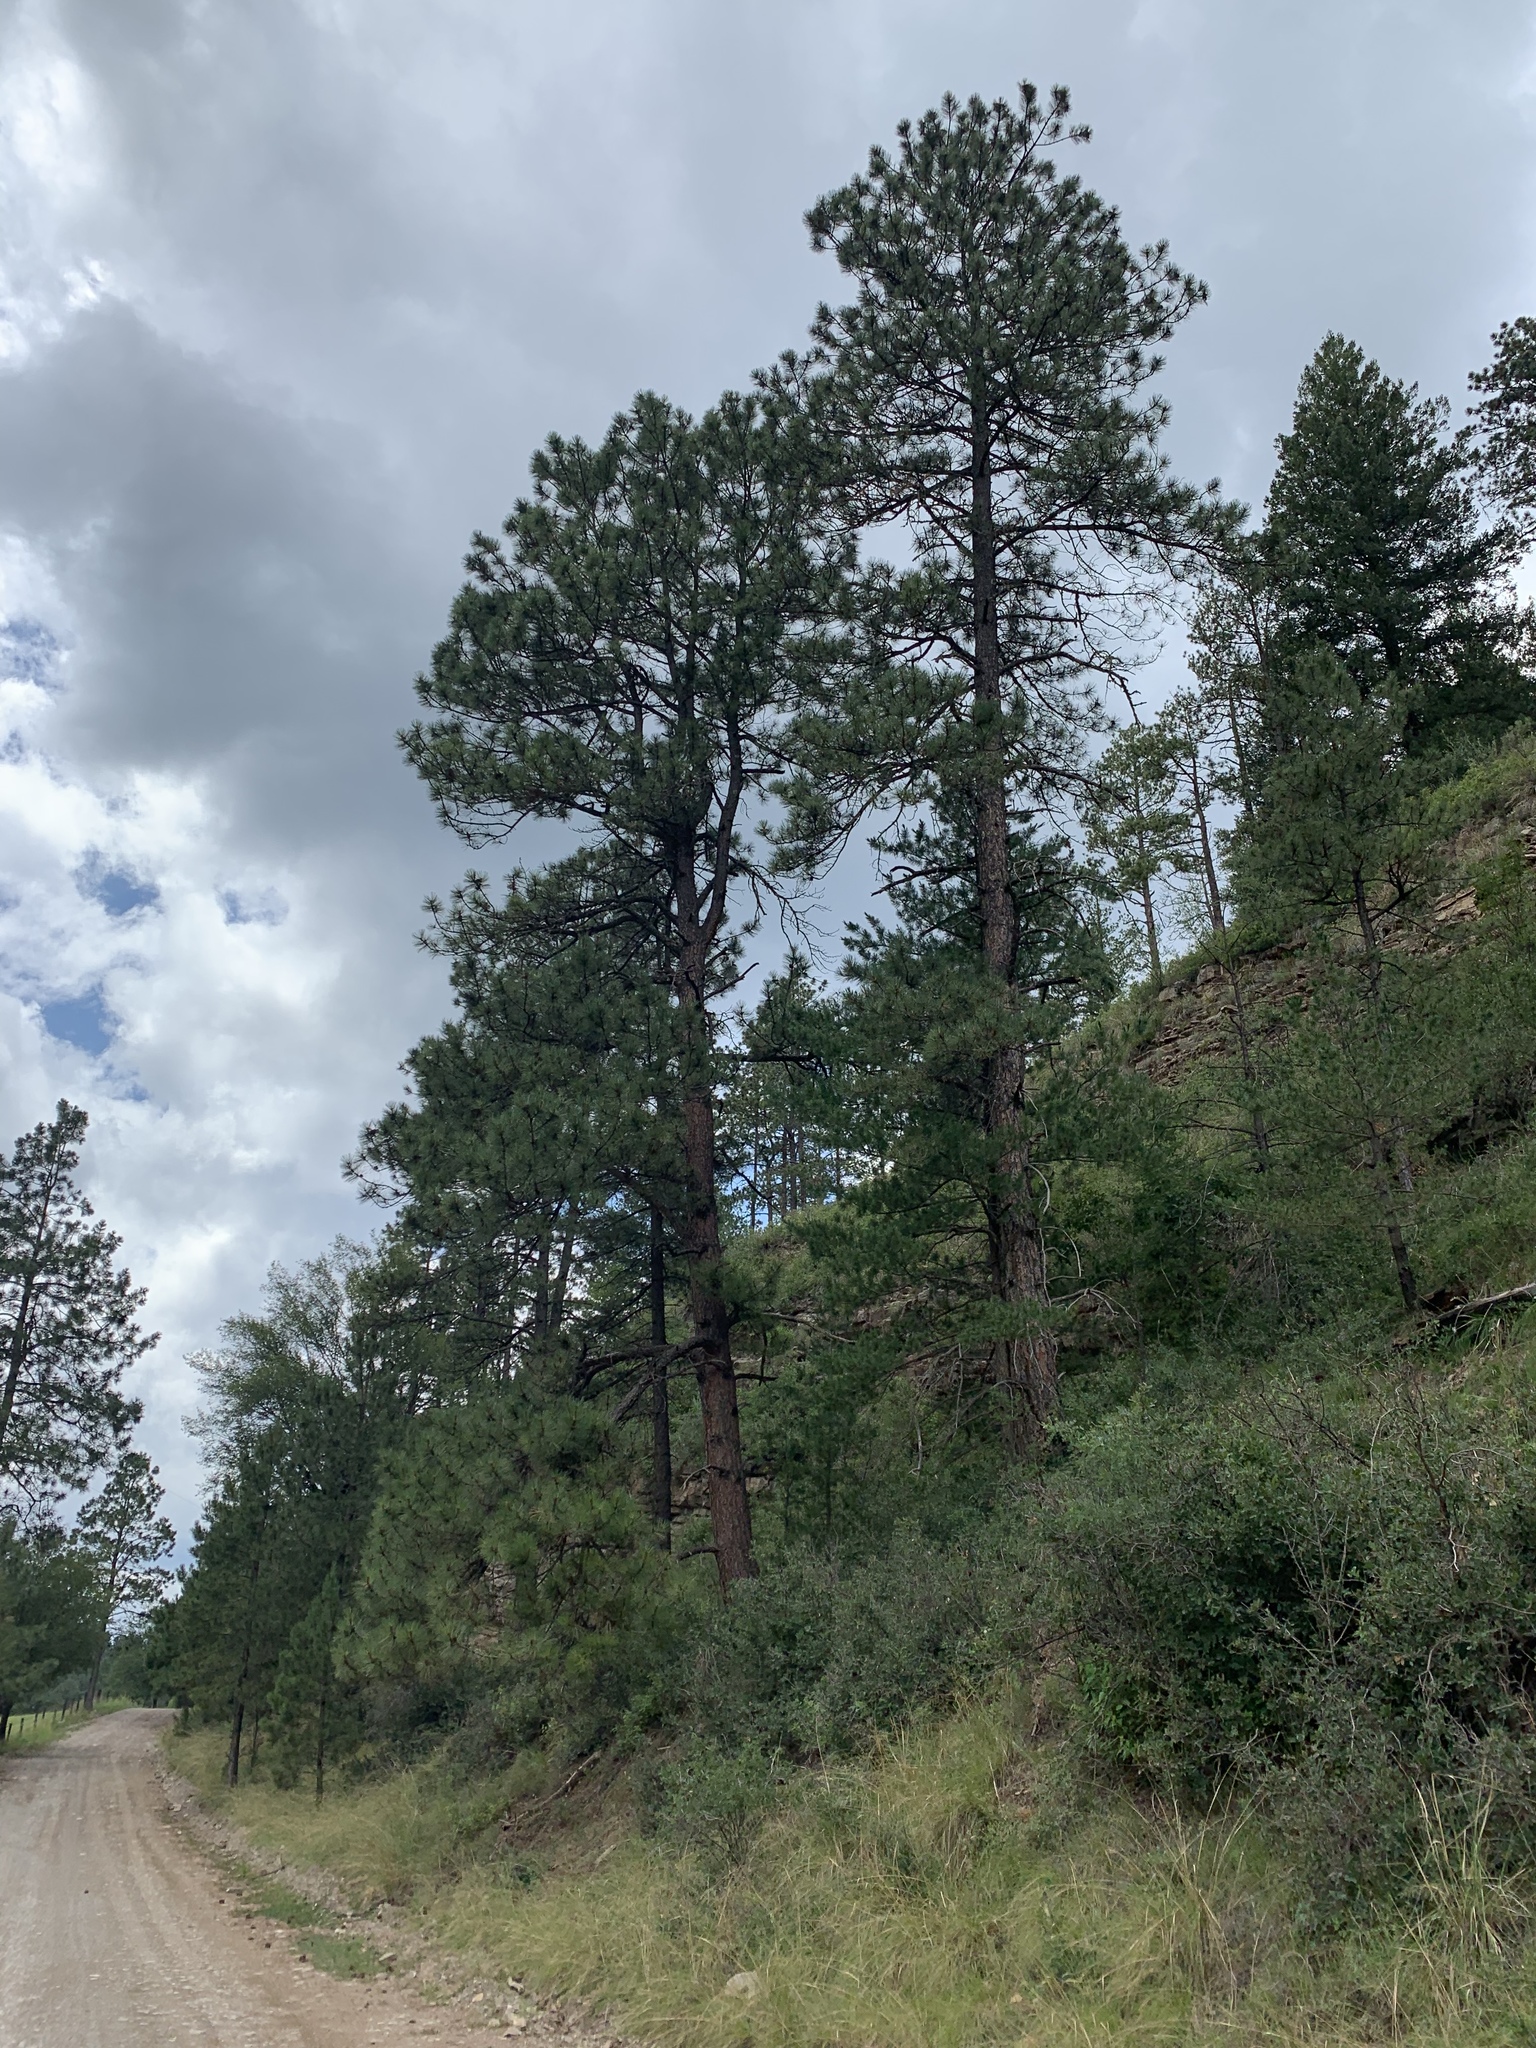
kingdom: Plantae
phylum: Tracheophyta
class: Pinopsida
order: Pinales
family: Pinaceae
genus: Pinus
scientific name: Pinus ponderosa
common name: Western yellow-pine
